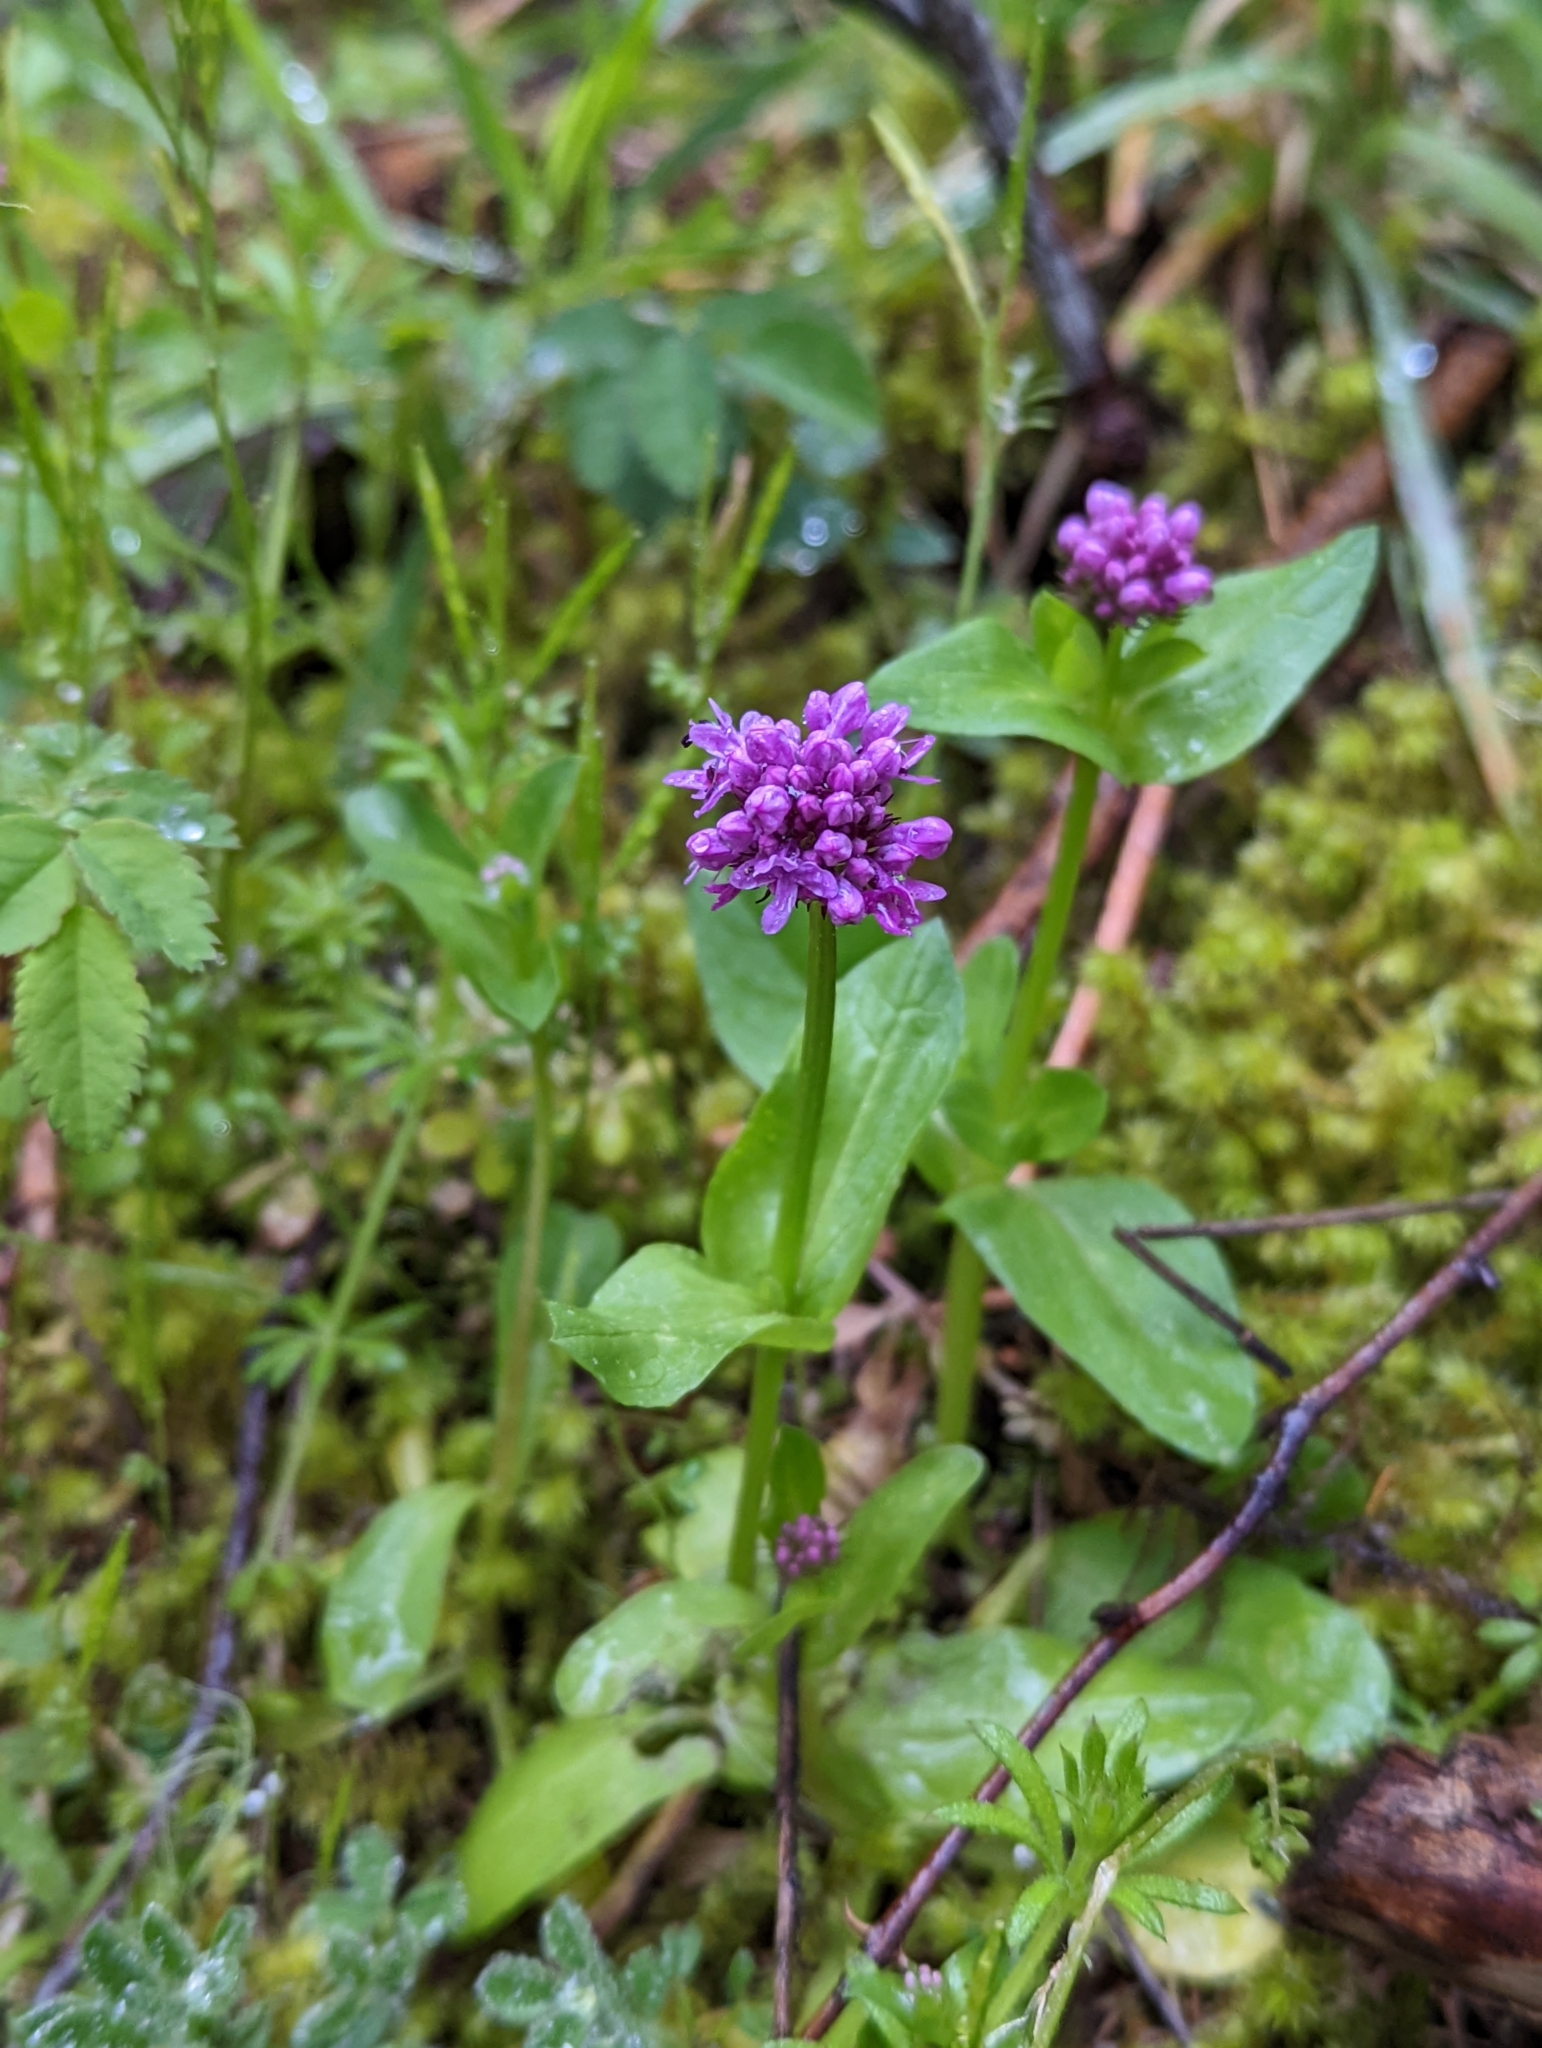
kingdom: Plantae
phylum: Tracheophyta
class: Magnoliopsida
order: Dipsacales
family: Caprifoliaceae
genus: Plectritis
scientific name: Plectritis congesta
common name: Pink plectritis
